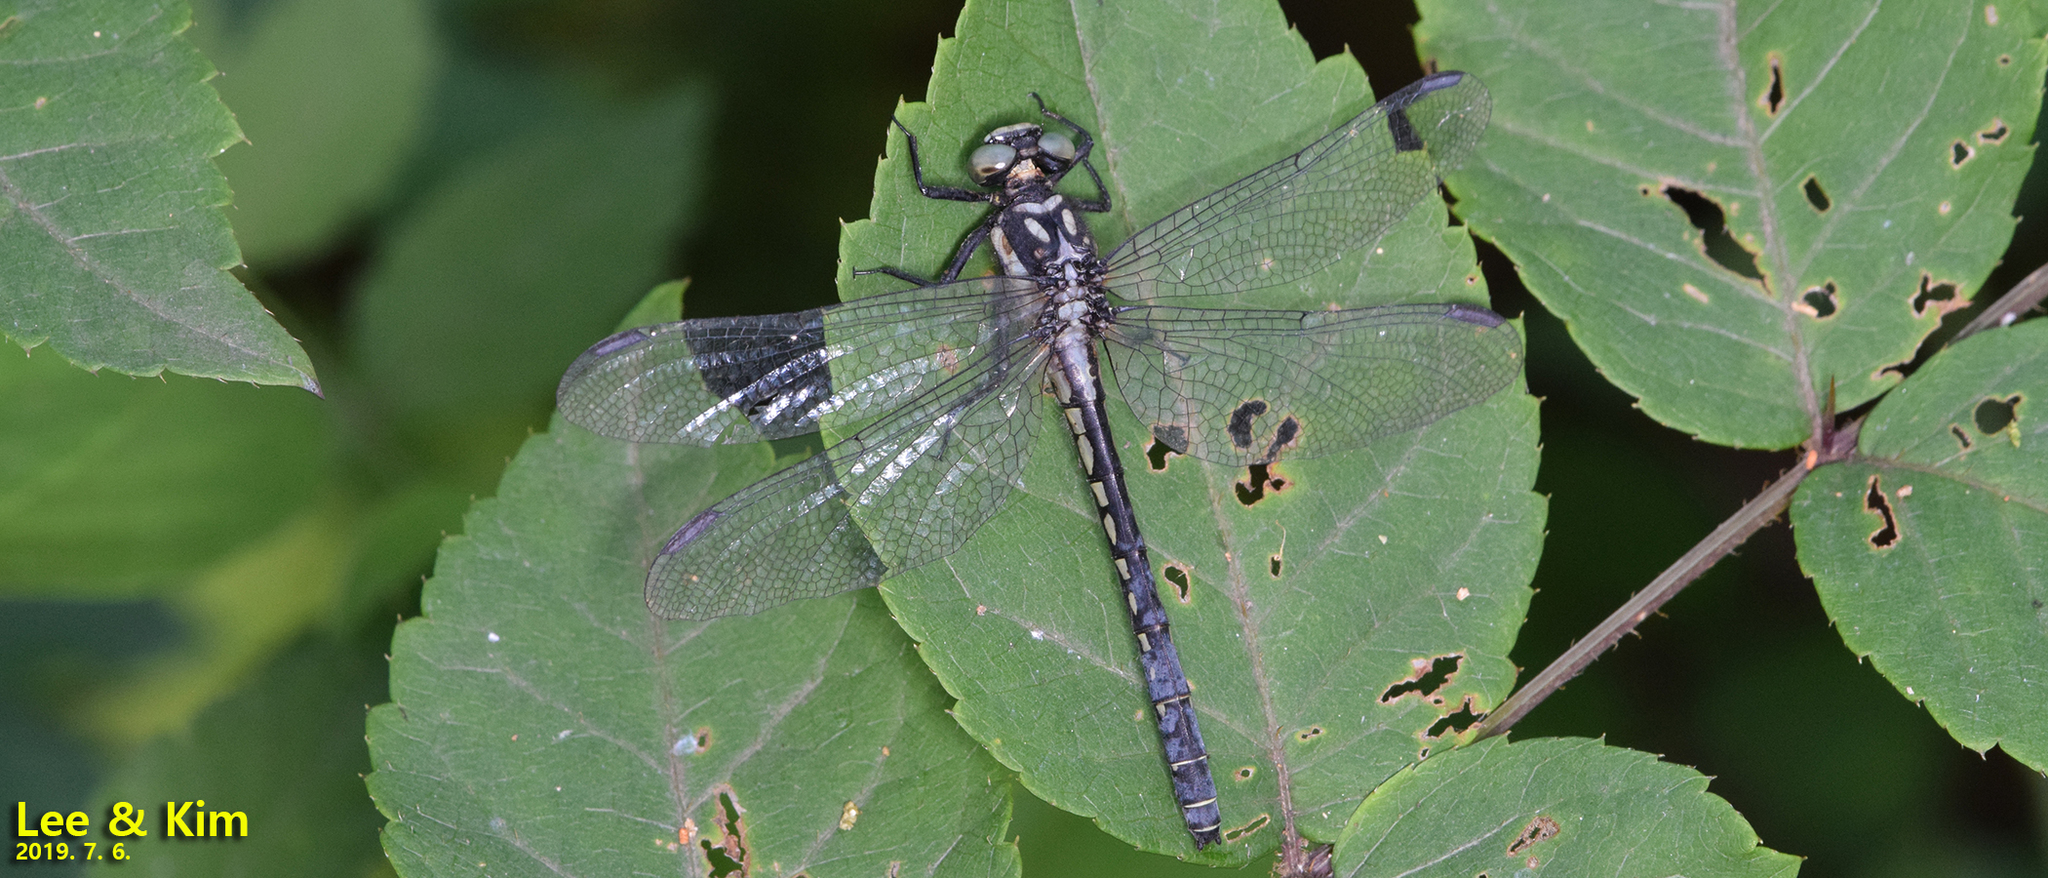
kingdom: Animalia
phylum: Arthropoda
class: Insecta
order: Odonata
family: Gomphidae
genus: Davidius
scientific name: Davidius lunatus
